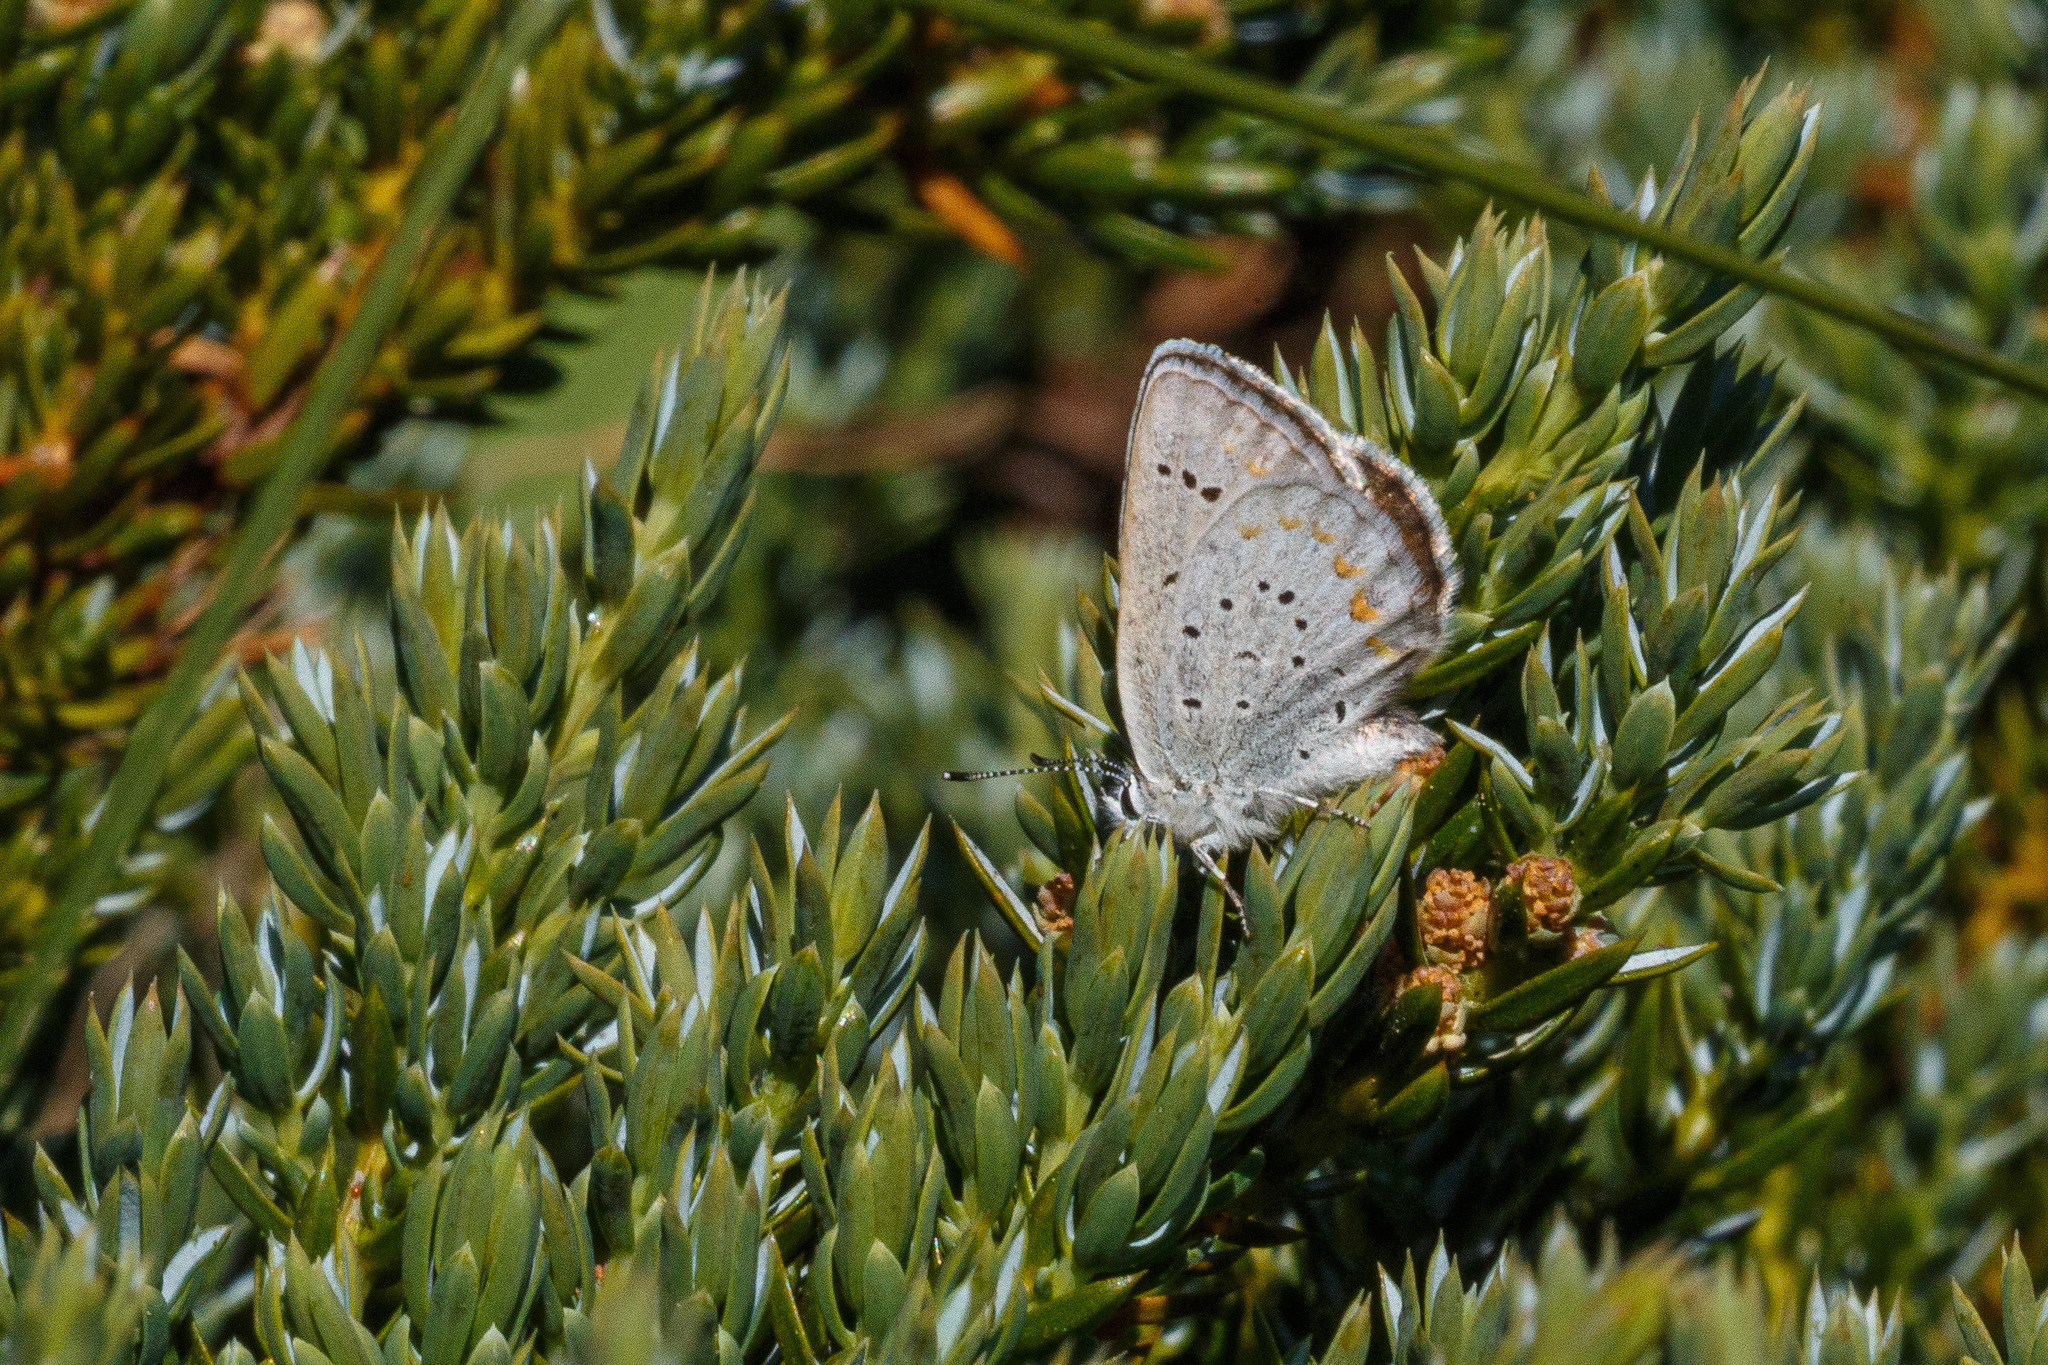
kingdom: Animalia
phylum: Arthropoda
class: Insecta
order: Lepidoptera
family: Lycaenidae
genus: Lycaeides
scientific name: Lycaeides anna
